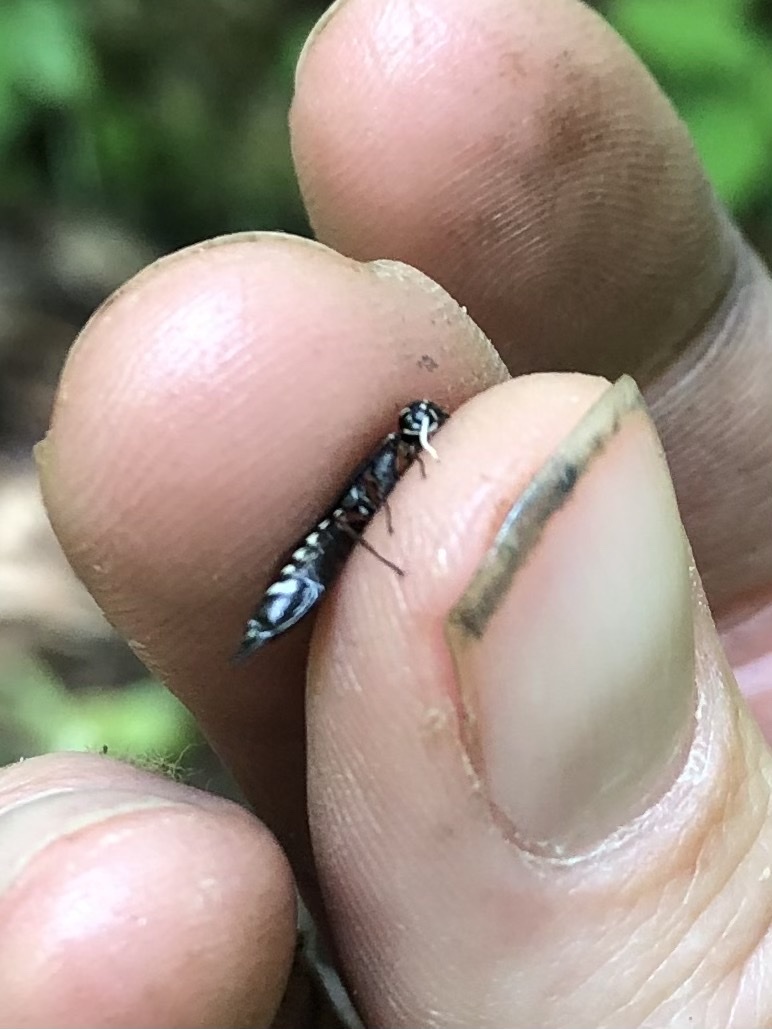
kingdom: Animalia
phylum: Arthropoda
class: Insecta
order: Hymenoptera
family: Xiphydriidae
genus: Xiphydria
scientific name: Xiphydria
